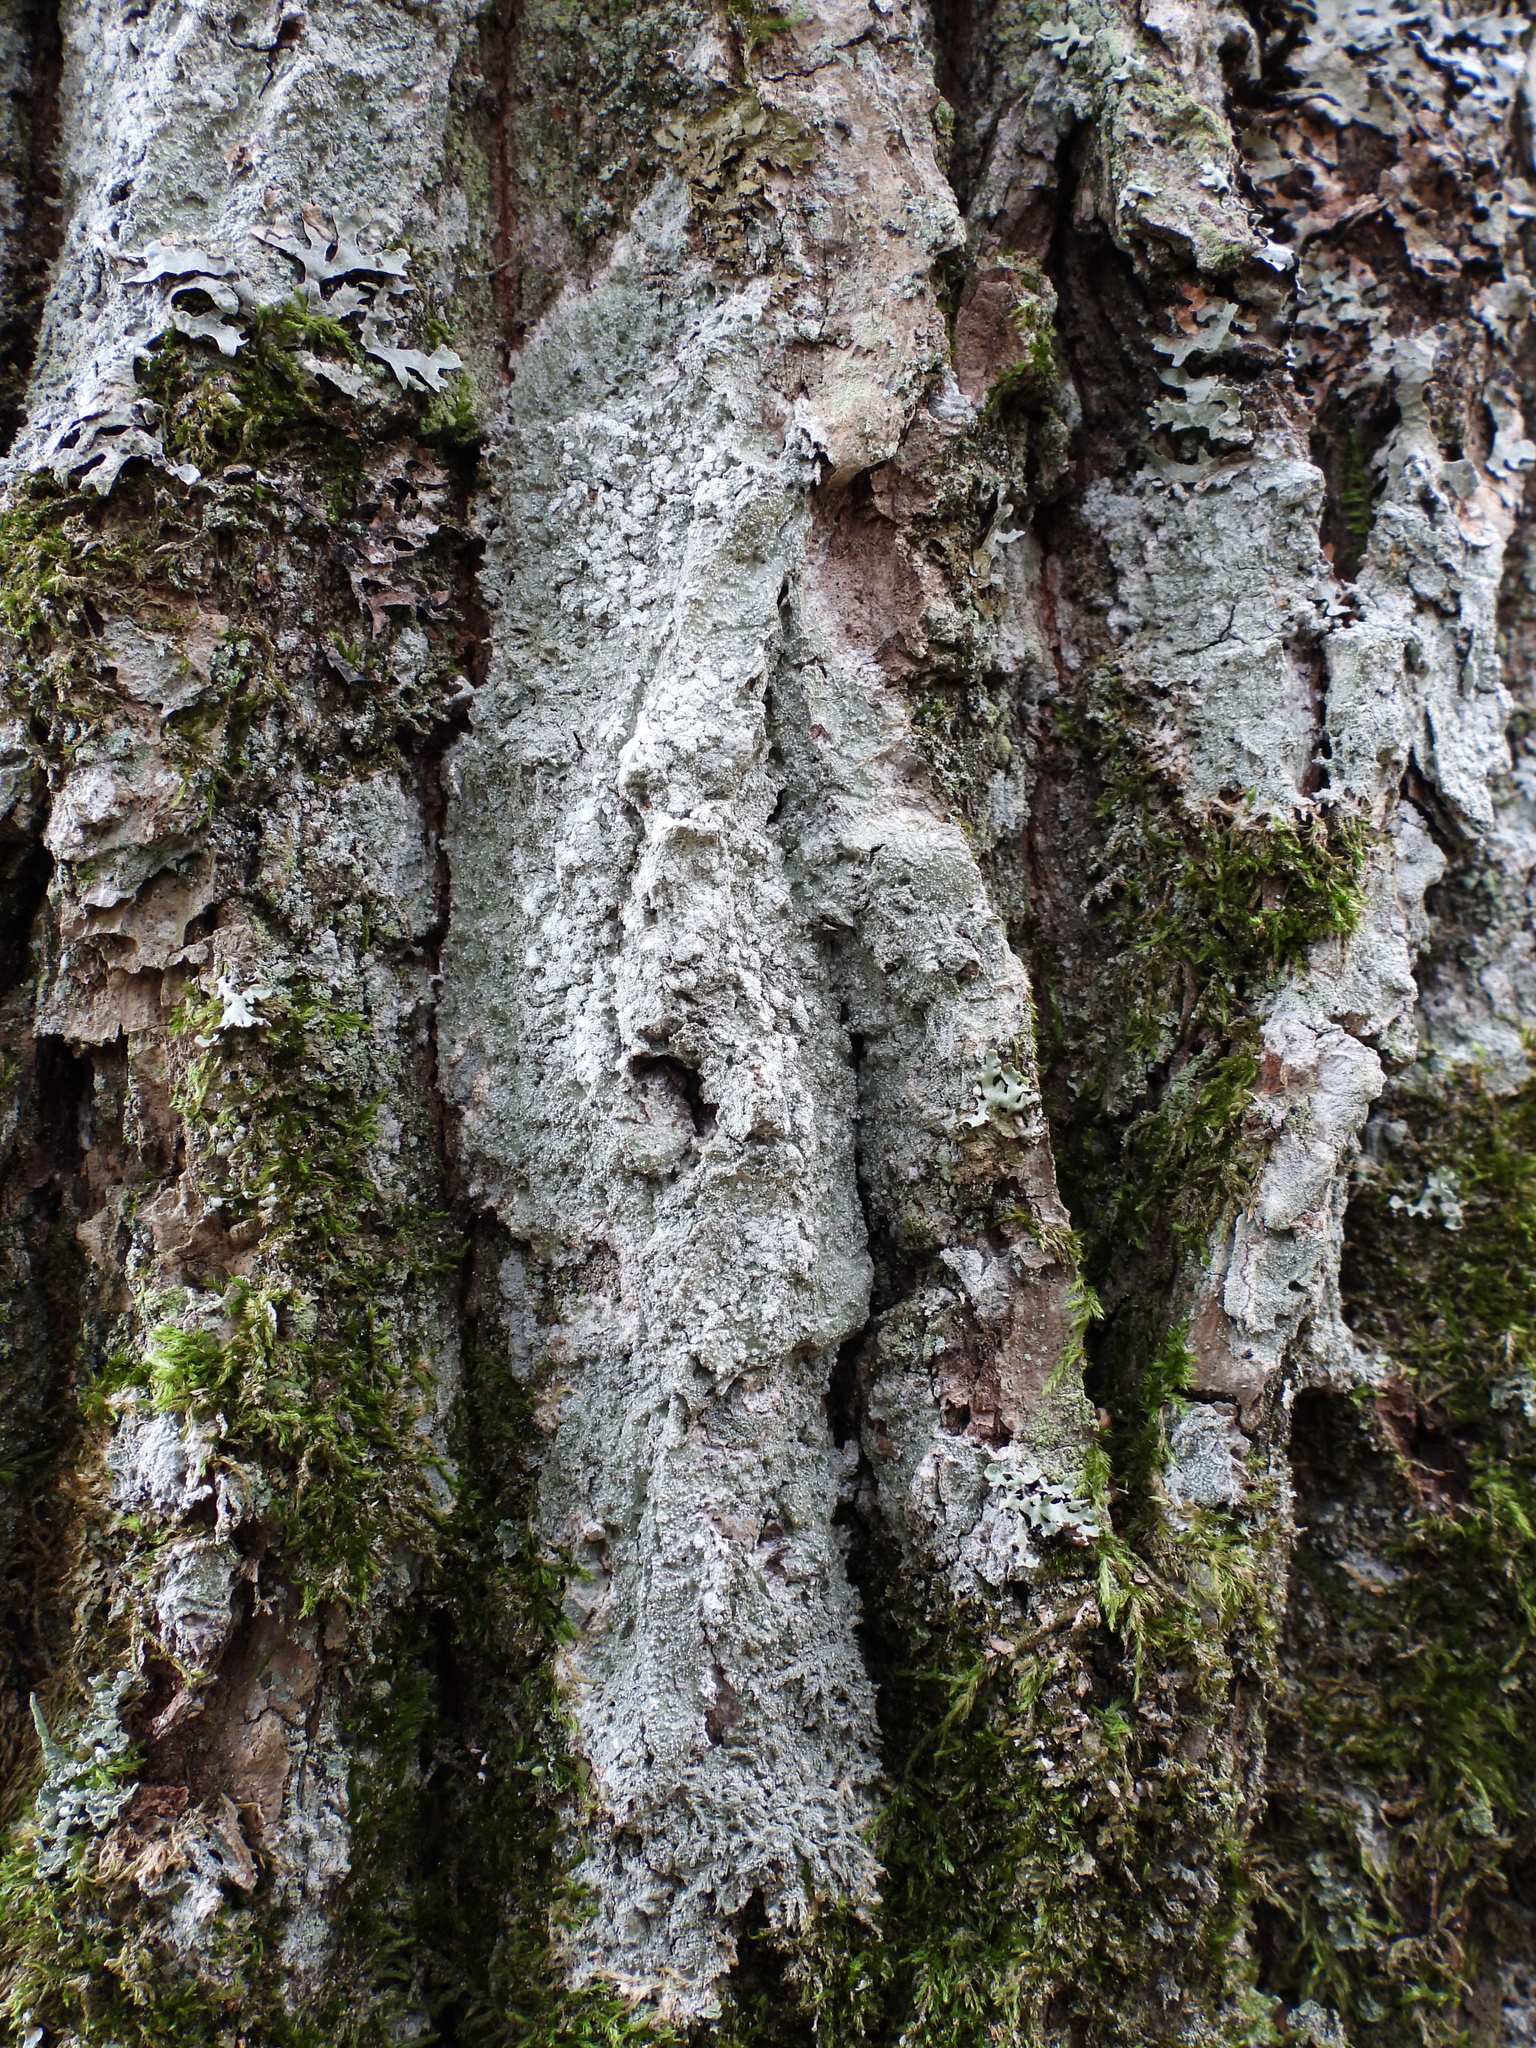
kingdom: Fungi
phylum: Ascomycota
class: Lecanoromycetes
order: Pertusariales
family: Pertusariaceae
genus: Lepra
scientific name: Lepra albescens
